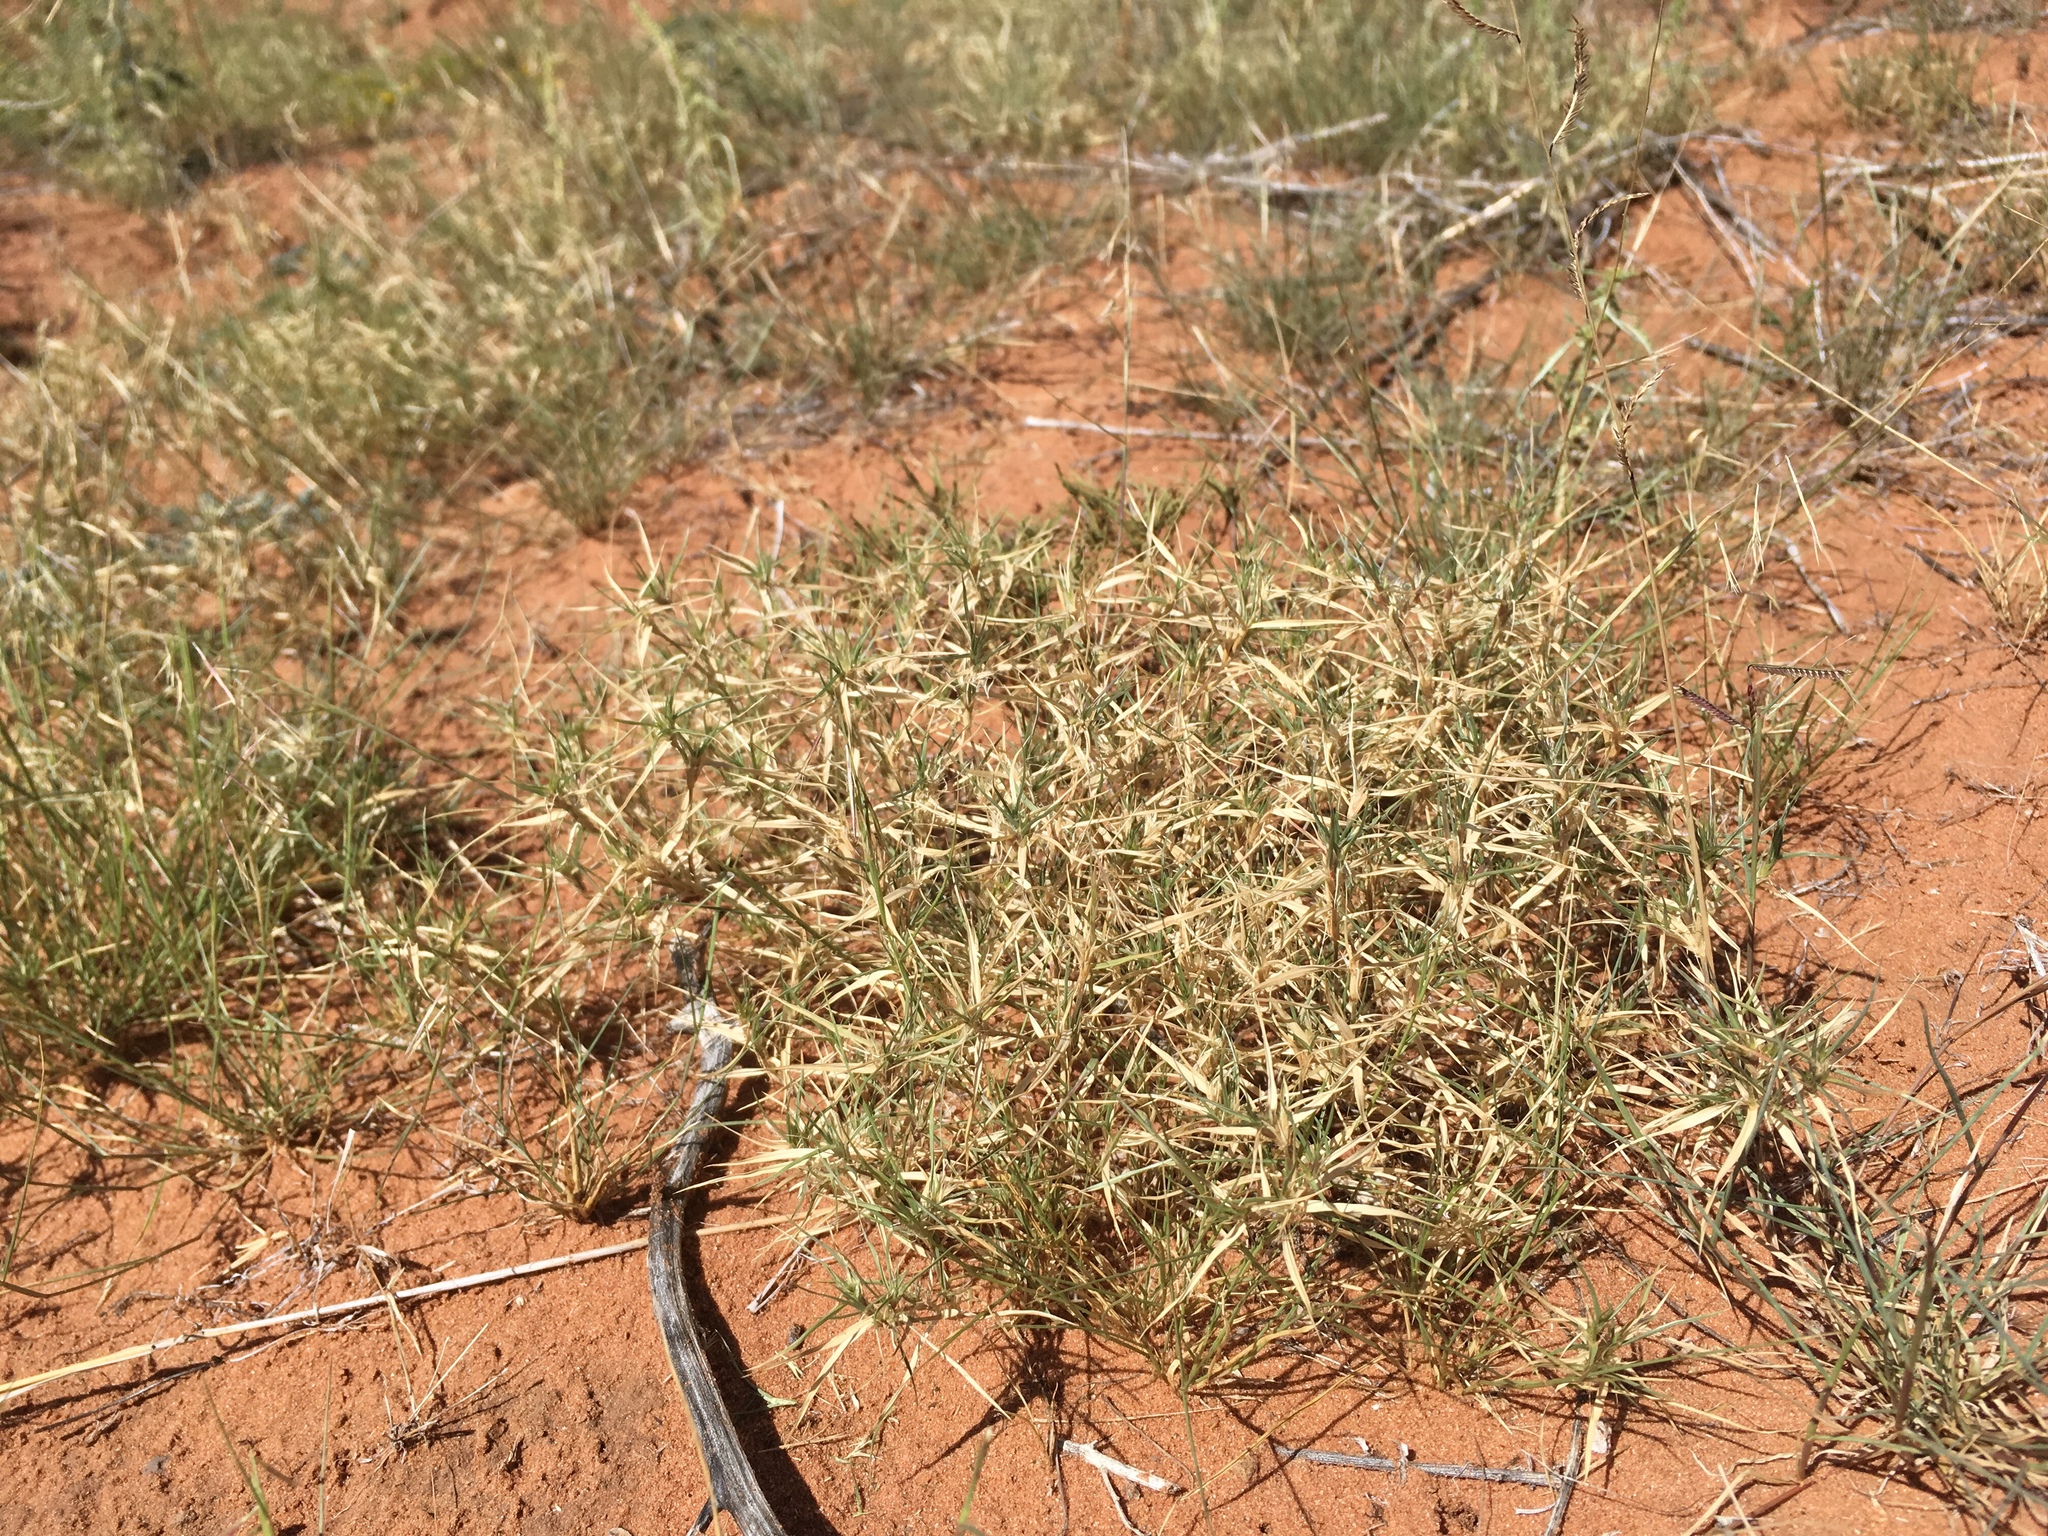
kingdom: Plantae
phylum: Tracheophyta
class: Liliopsida
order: Poales
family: Poaceae
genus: Munroa
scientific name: Munroa squarrosa
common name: False buffalo grass
